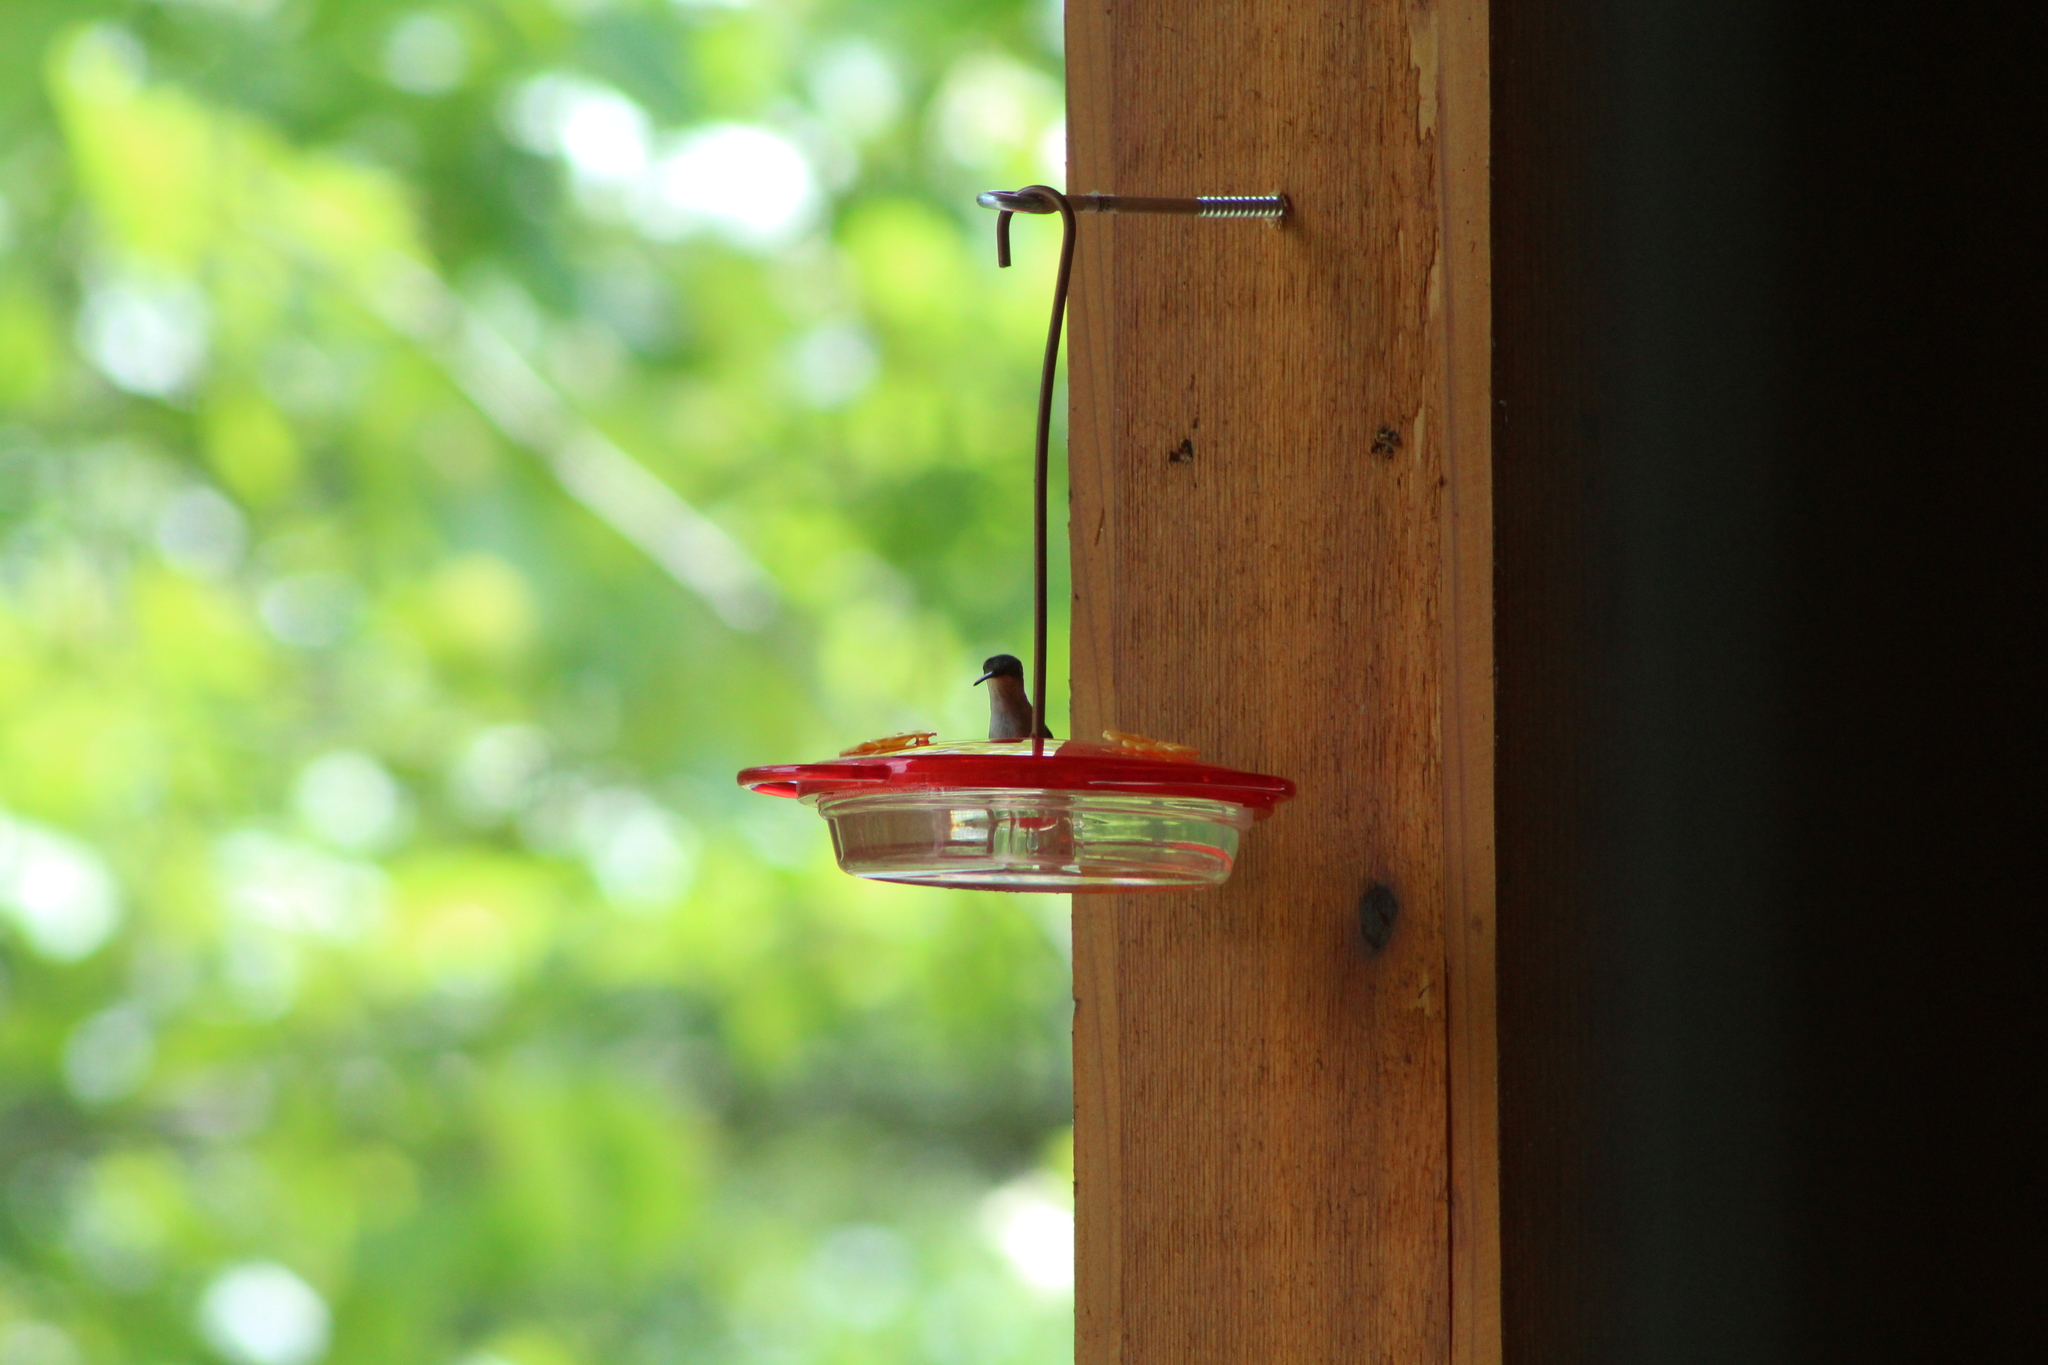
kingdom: Animalia
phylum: Chordata
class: Aves
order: Apodiformes
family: Trochilidae
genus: Archilochus
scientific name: Archilochus colubris
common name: Ruby-throated hummingbird
